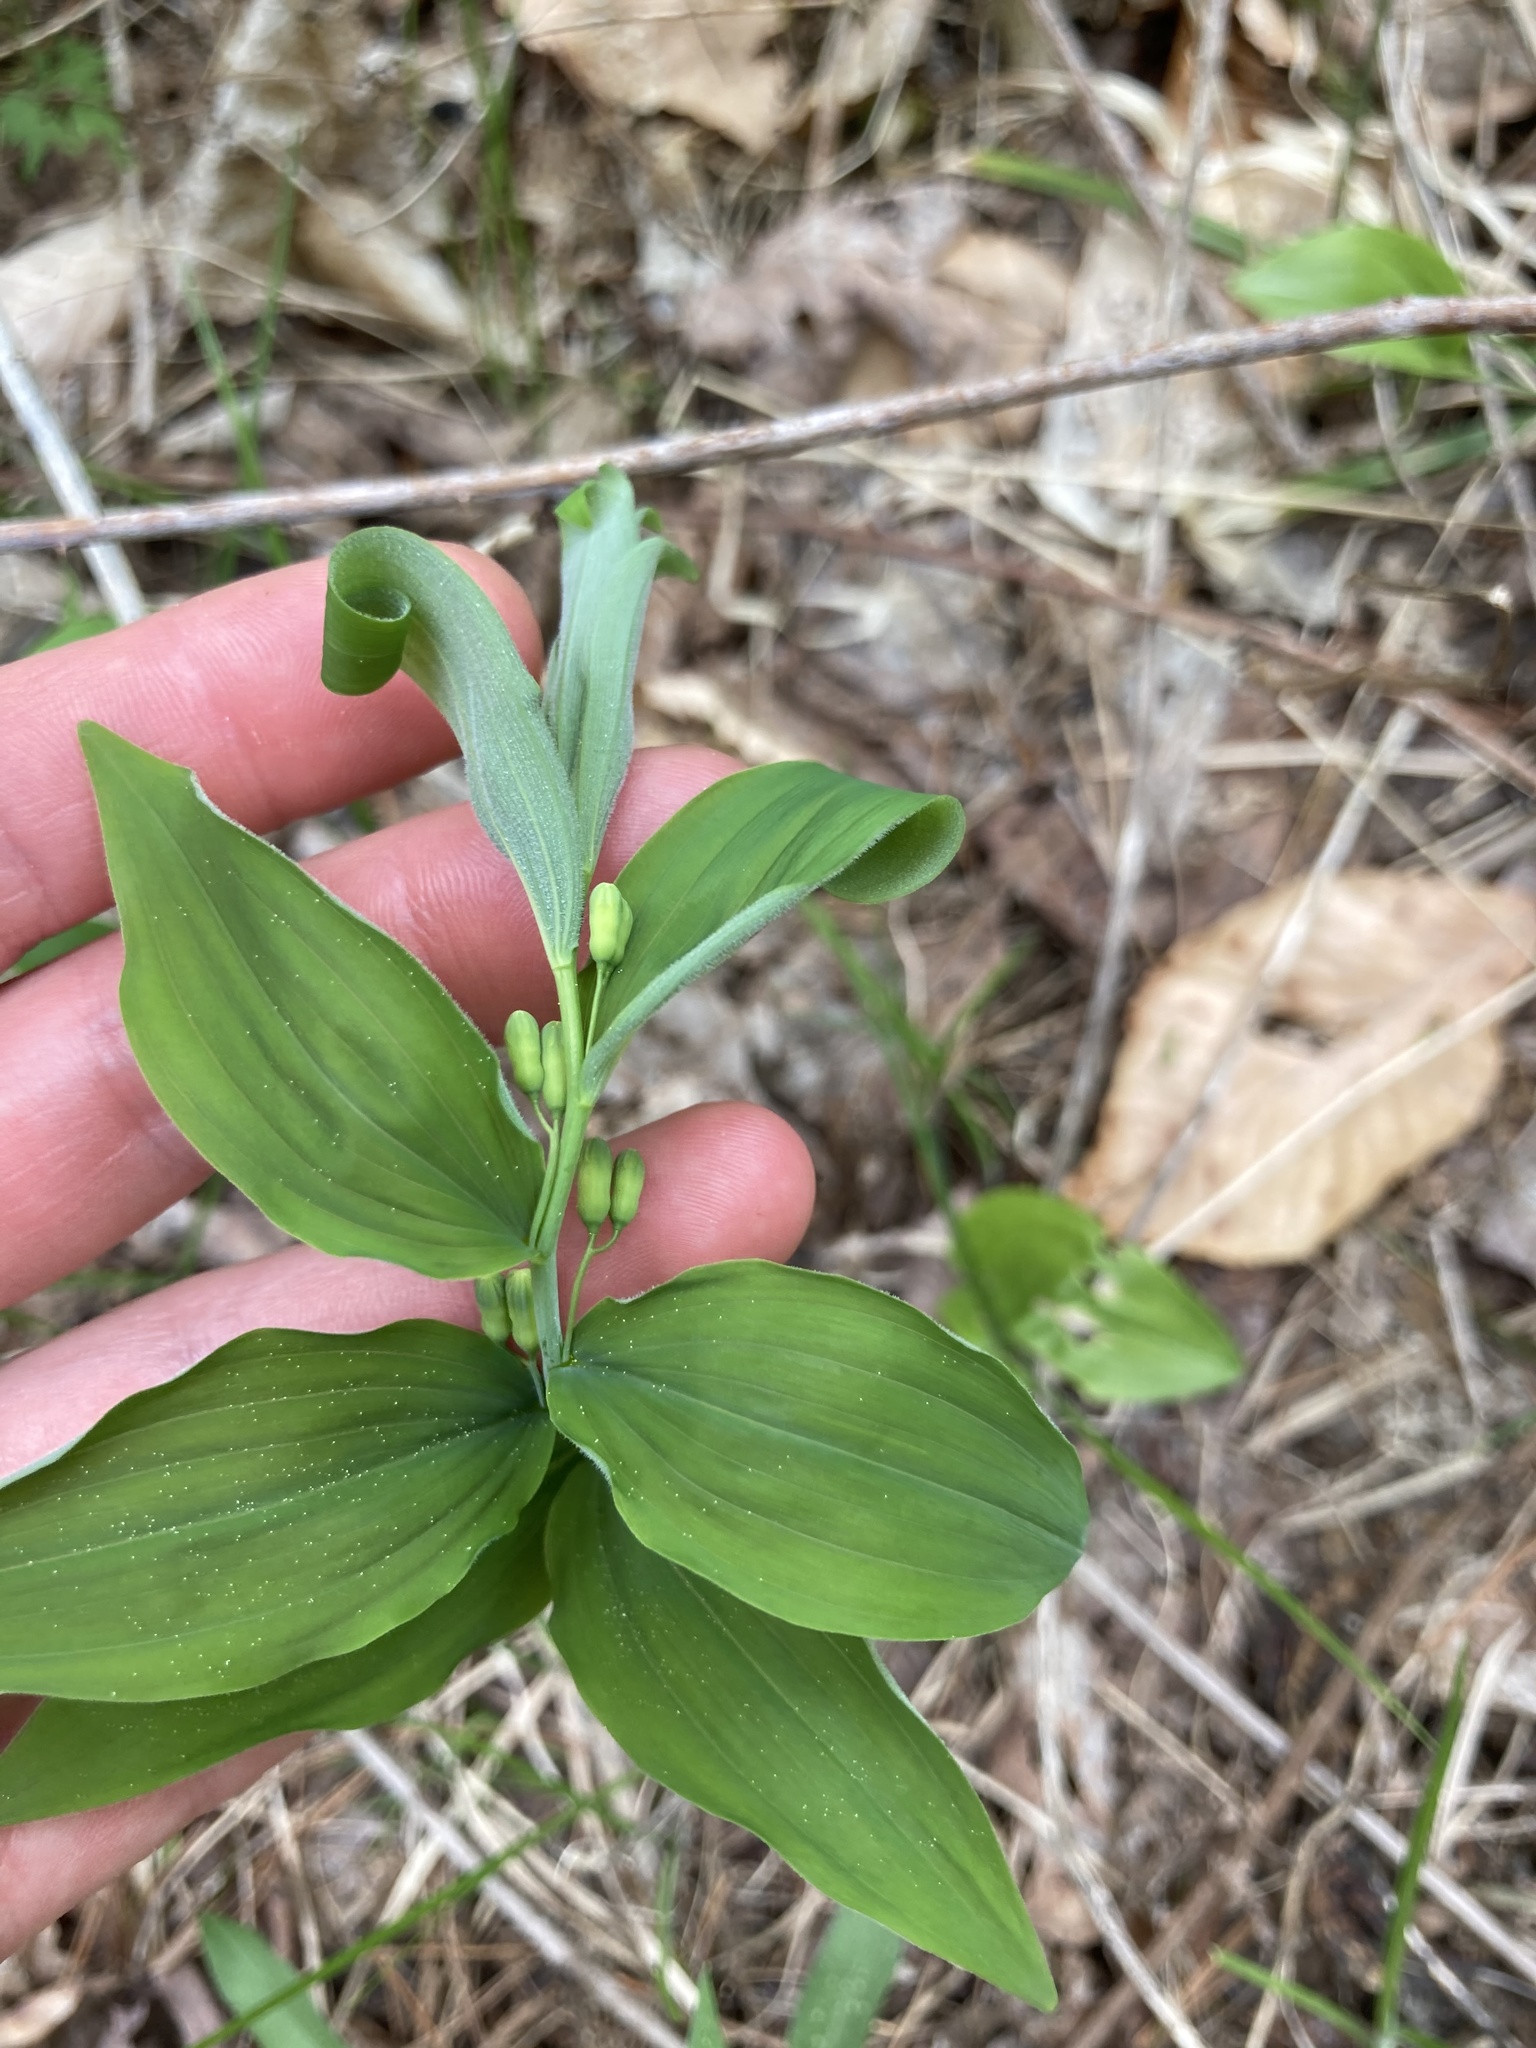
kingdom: Plantae
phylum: Tracheophyta
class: Liliopsida
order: Asparagales
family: Asparagaceae
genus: Polygonatum
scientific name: Polygonatum pubescens
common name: Downy solomon's seal
